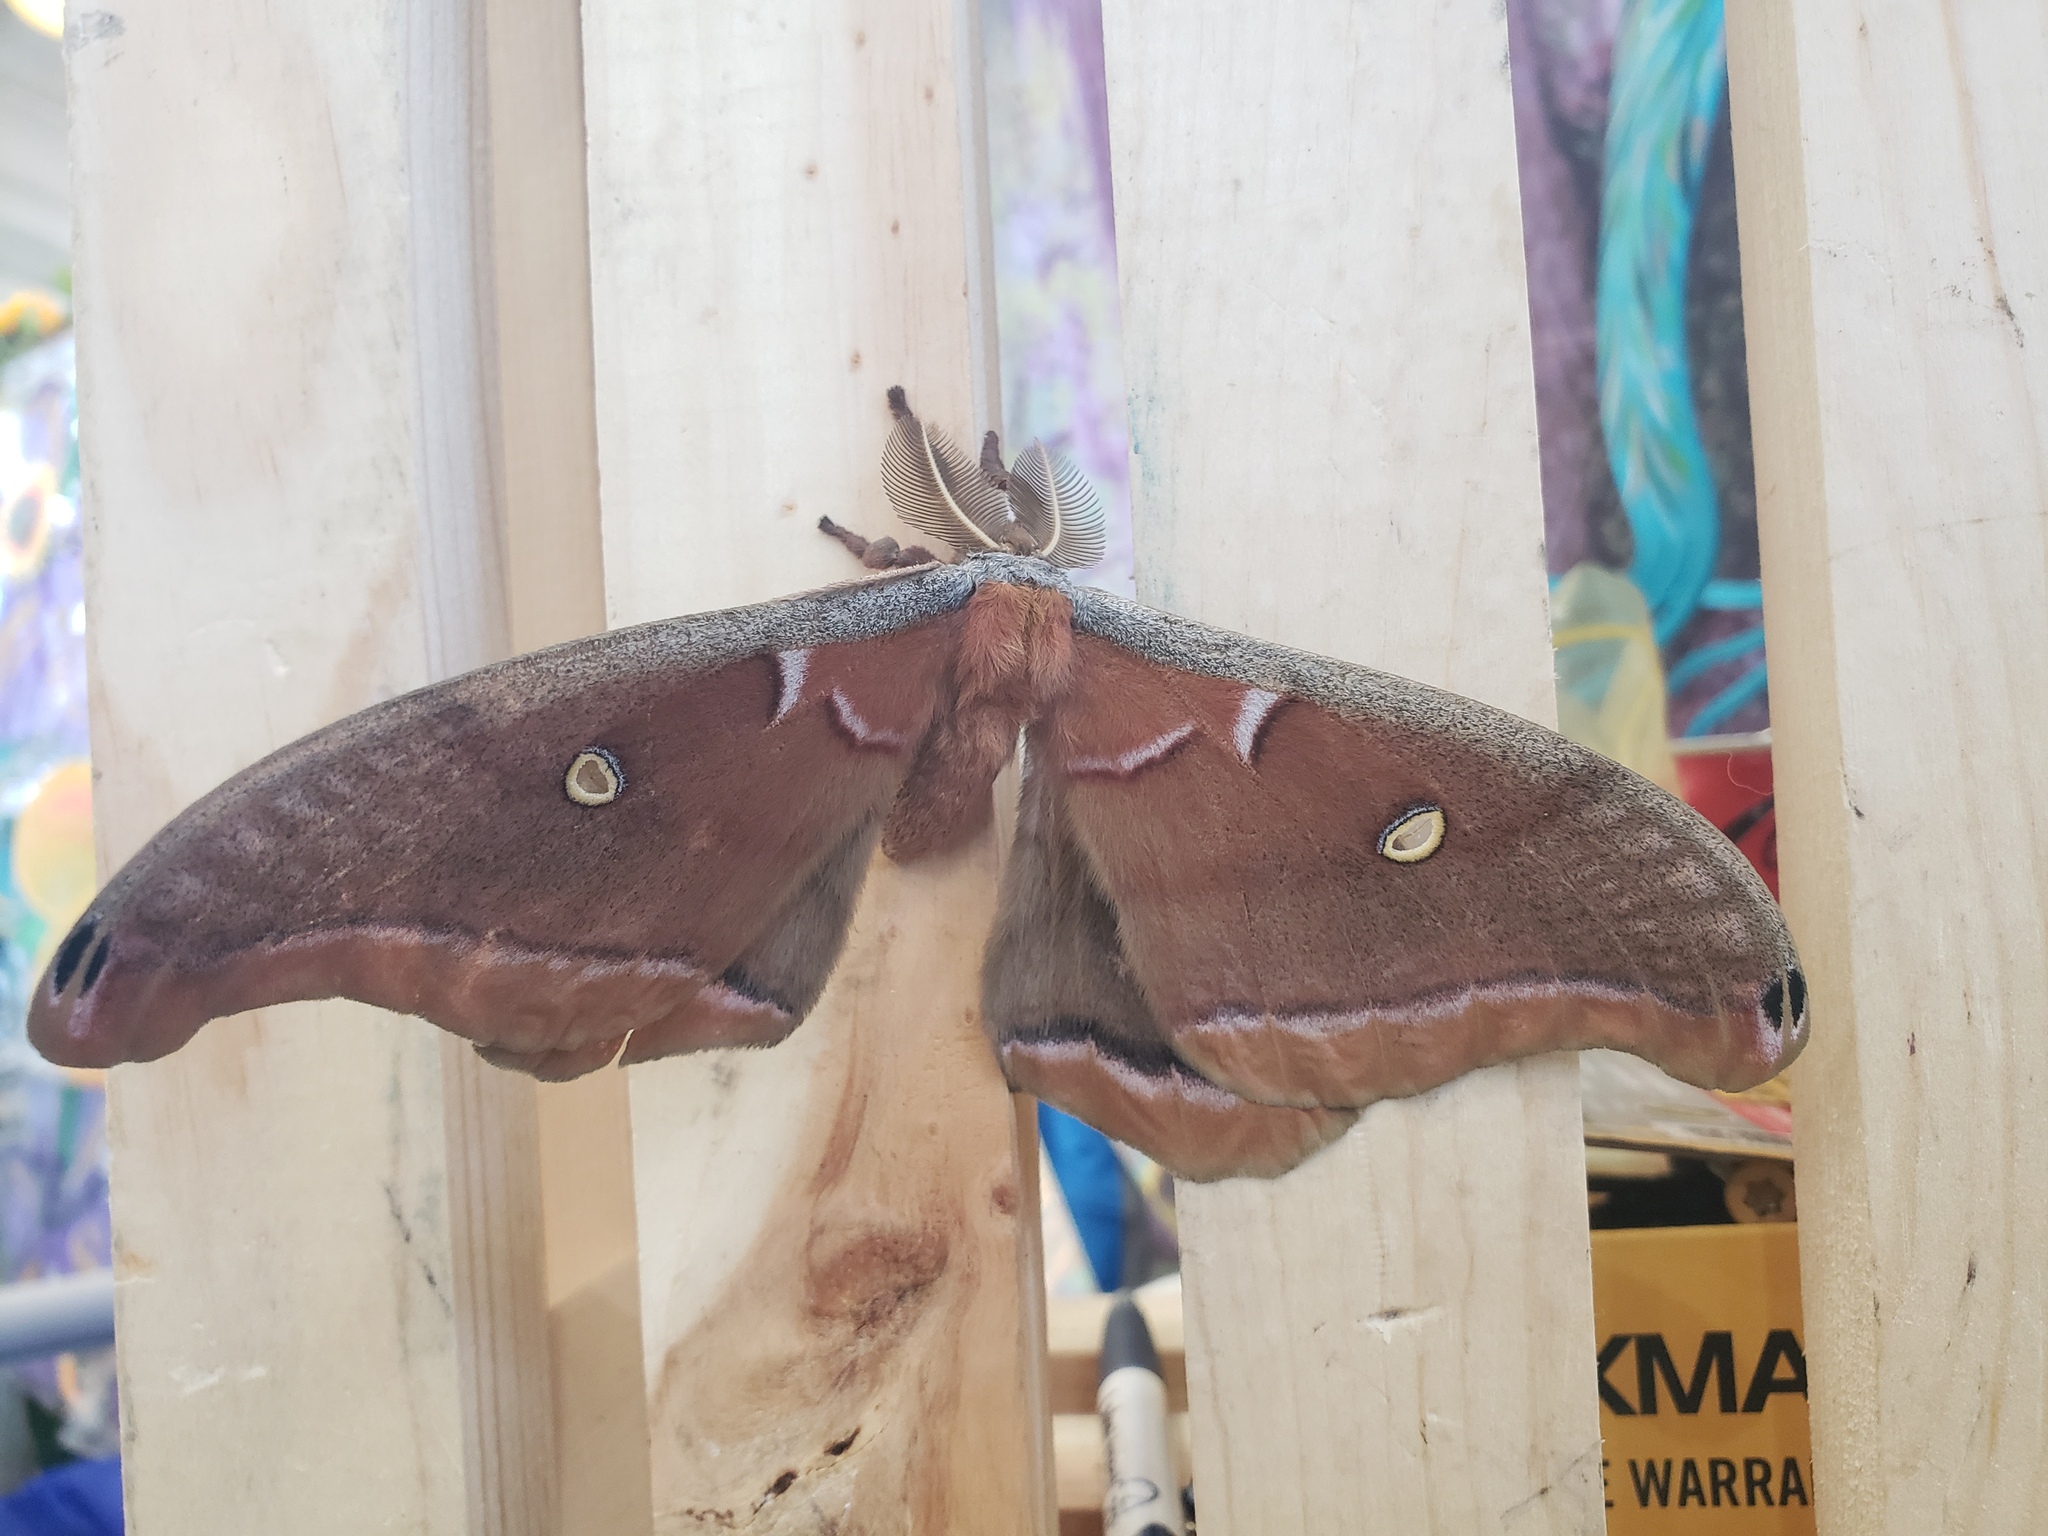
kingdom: Animalia
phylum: Arthropoda
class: Insecta
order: Lepidoptera
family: Saturniidae
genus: Antheraea
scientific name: Antheraea polyphemus
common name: Polyphemus moth
